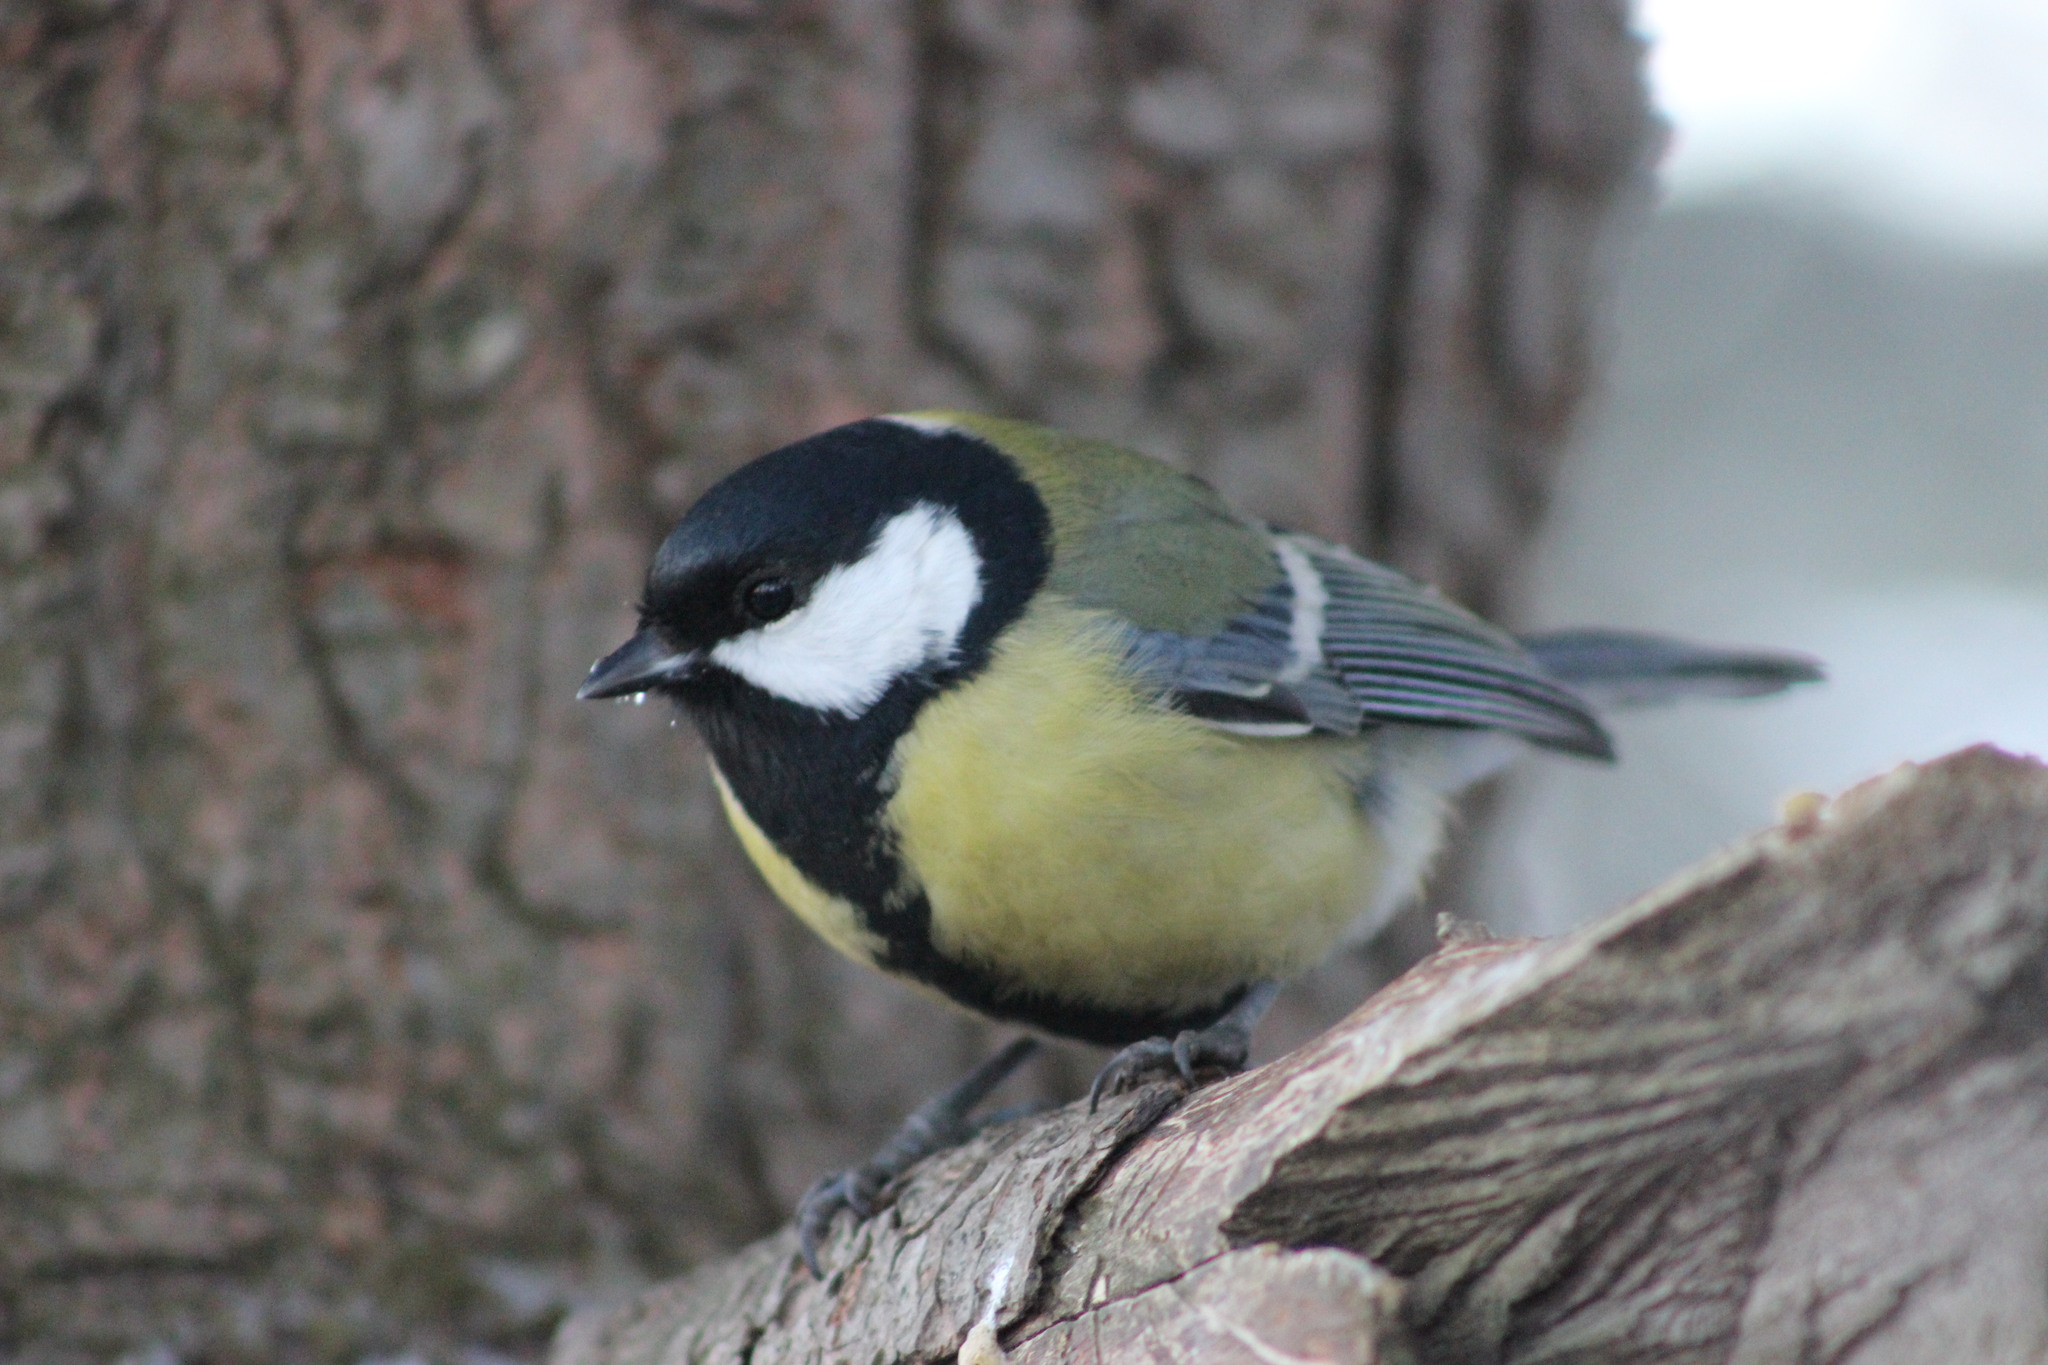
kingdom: Animalia
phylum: Chordata
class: Aves
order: Passeriformes
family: Paridae
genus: Parus
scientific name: Parus major
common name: Great tit
